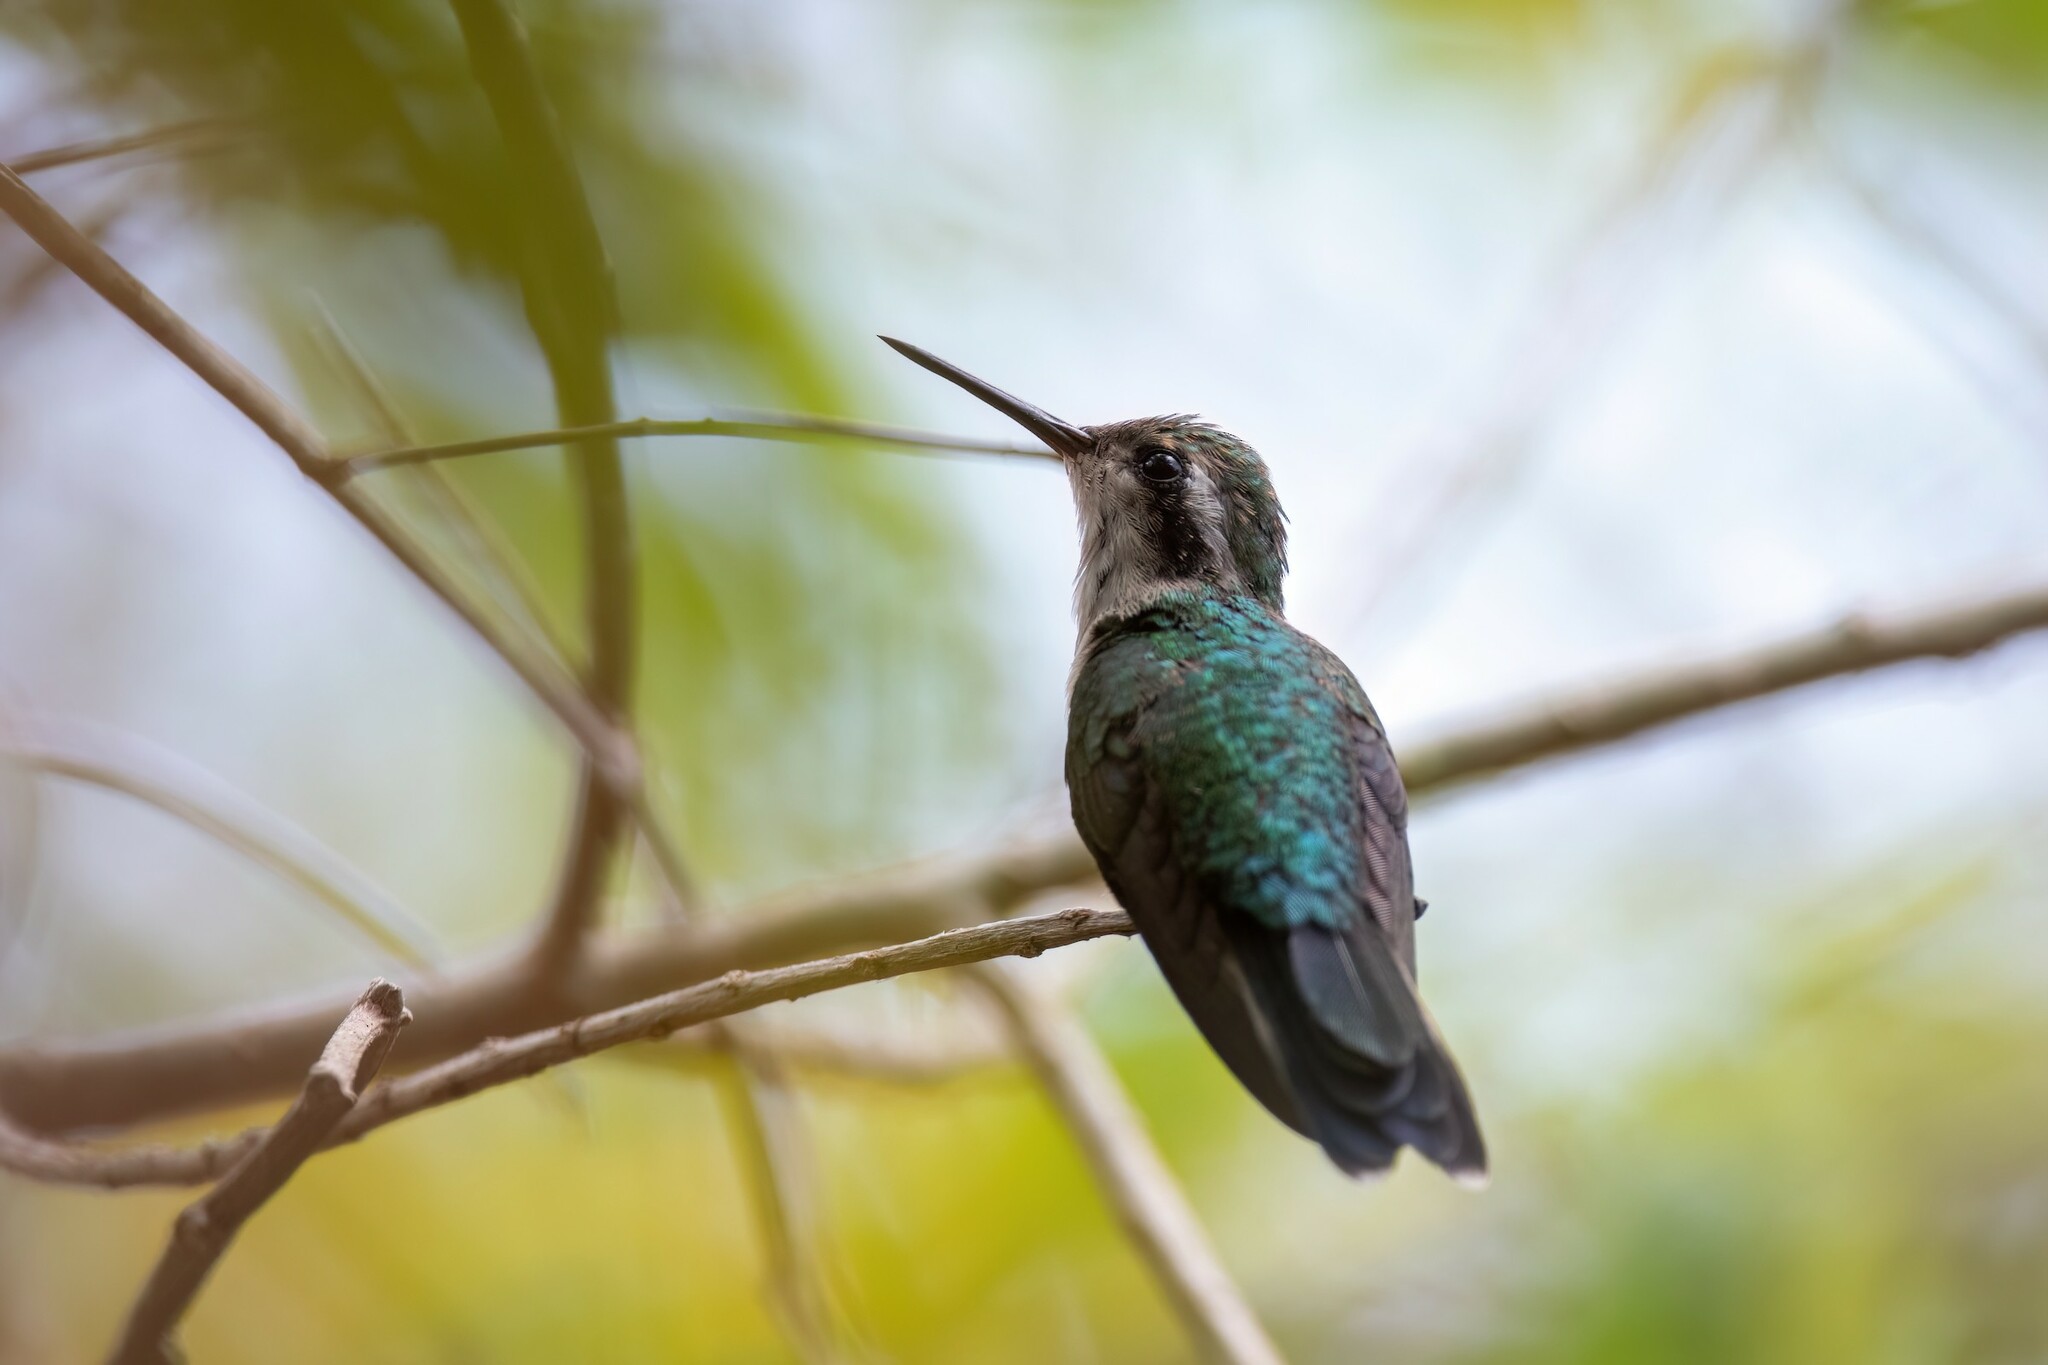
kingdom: Animalia
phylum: Chordata
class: Aves
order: Apodiformes
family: Trochilidae
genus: Cynanthus
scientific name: Cynanthus forficatus
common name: Cozumel emerald
